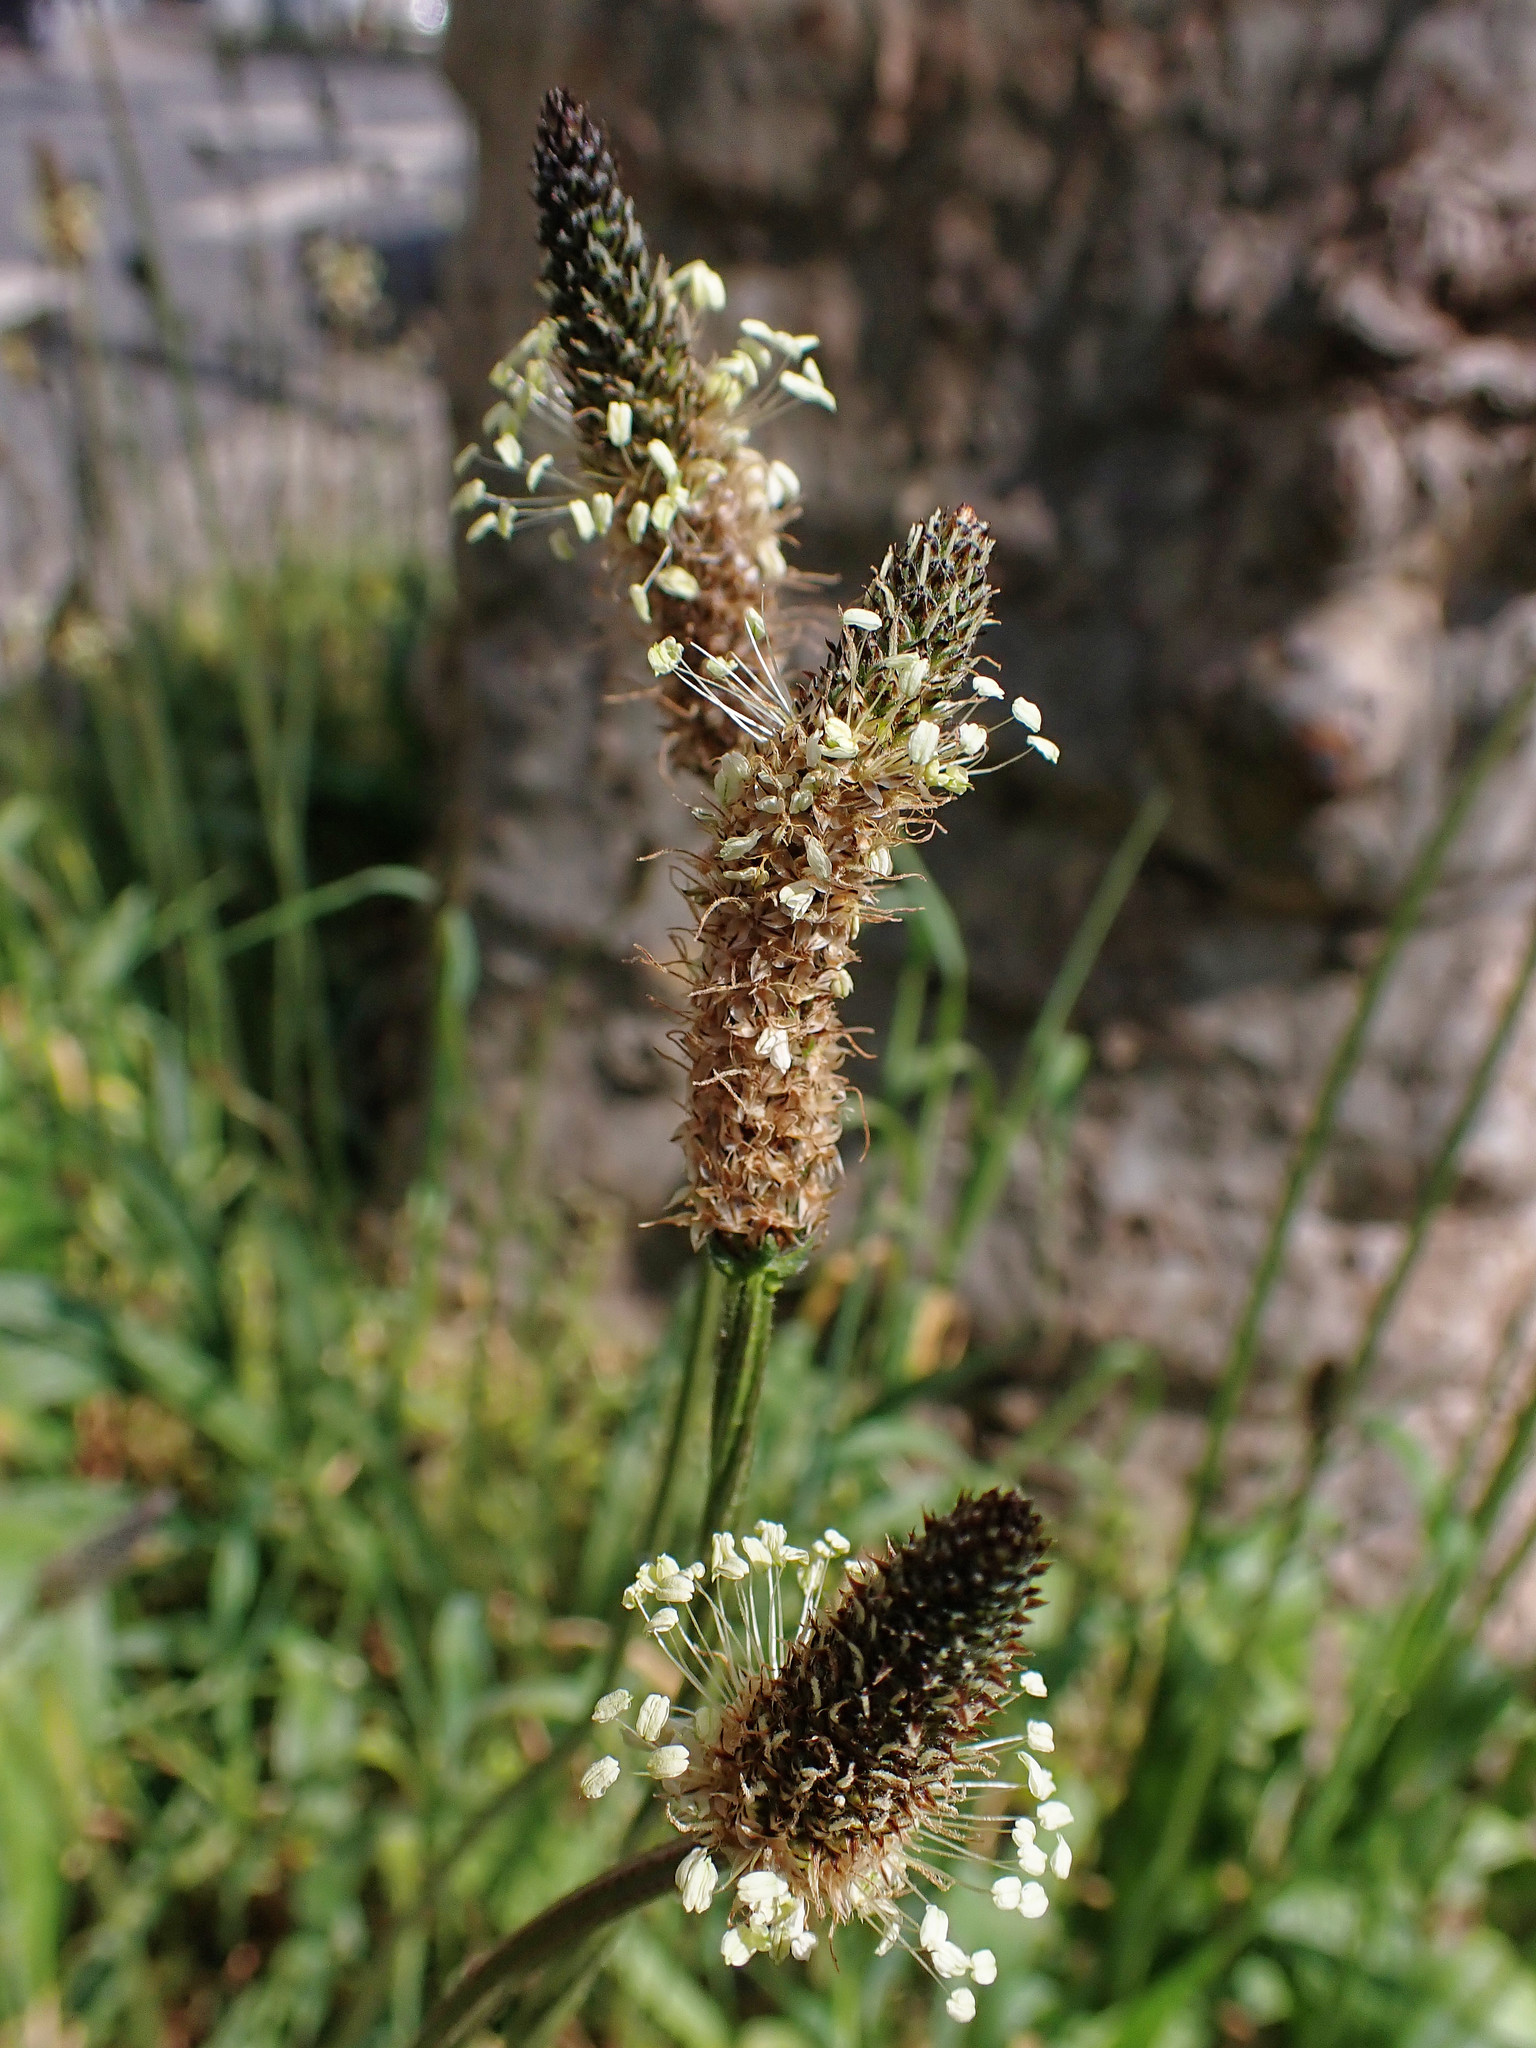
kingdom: Plantae
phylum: Tracheophyta
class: Magnoliopsida
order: Lamiales
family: Plantaginaceae
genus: Plantago
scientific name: Plantago lanceolata
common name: Ribwort plantain
